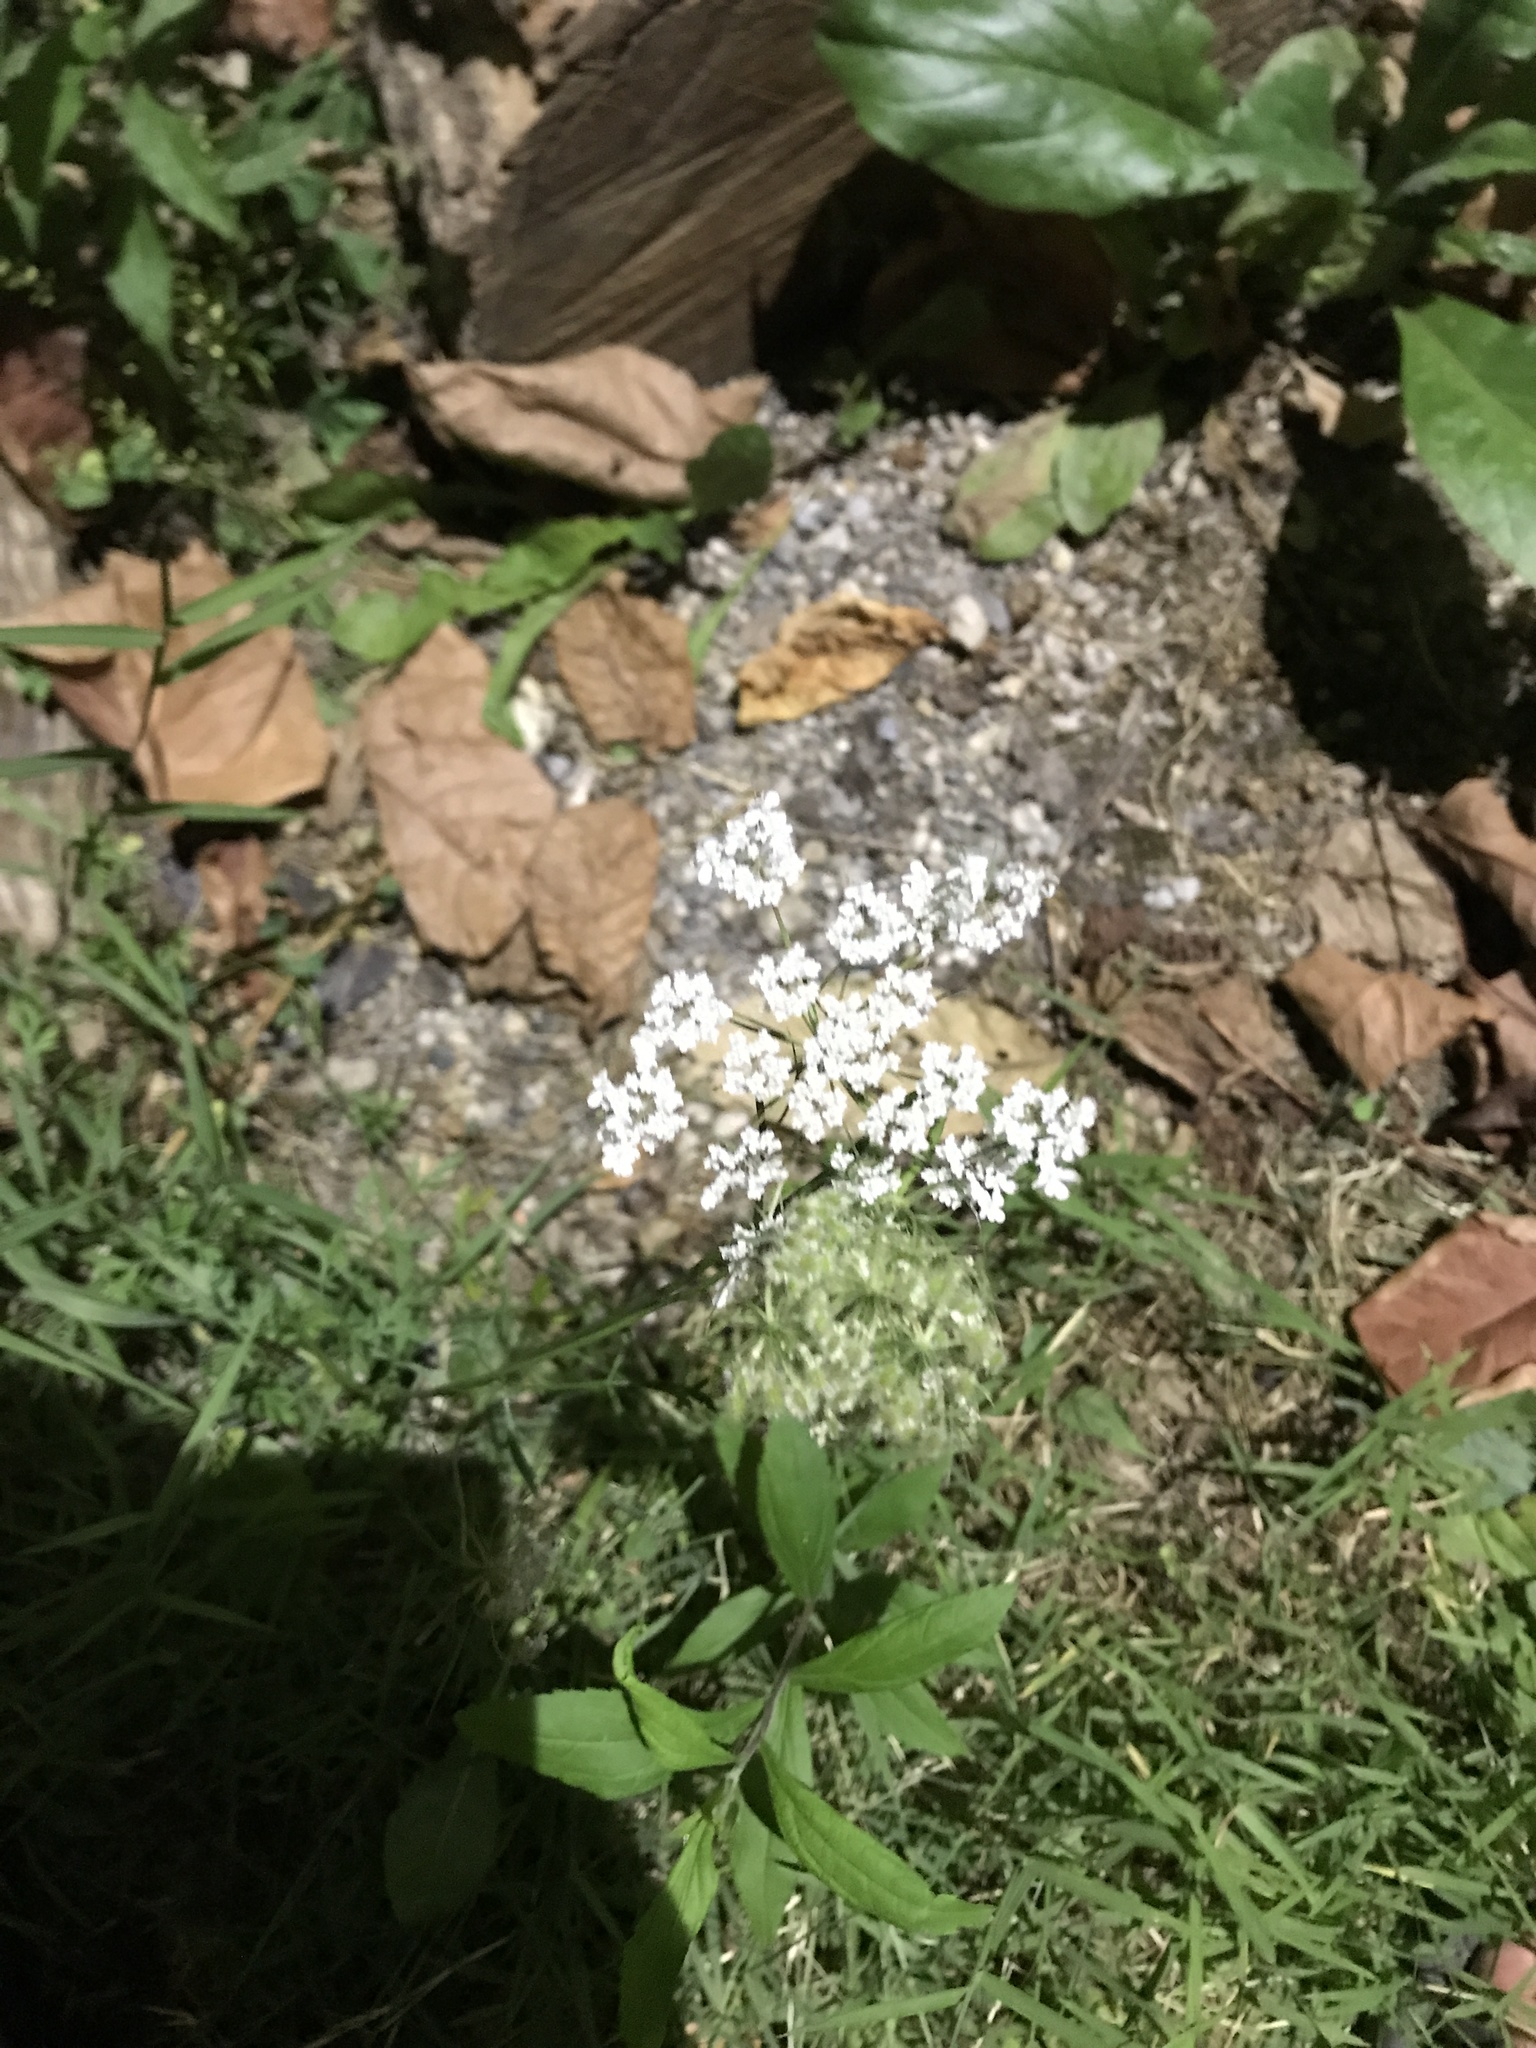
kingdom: Plantae
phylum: Tracheophyta
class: Magnoliopsida
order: Apiales
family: Apiaceae
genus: Daucus
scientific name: Daucus carota
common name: Wild carrot
